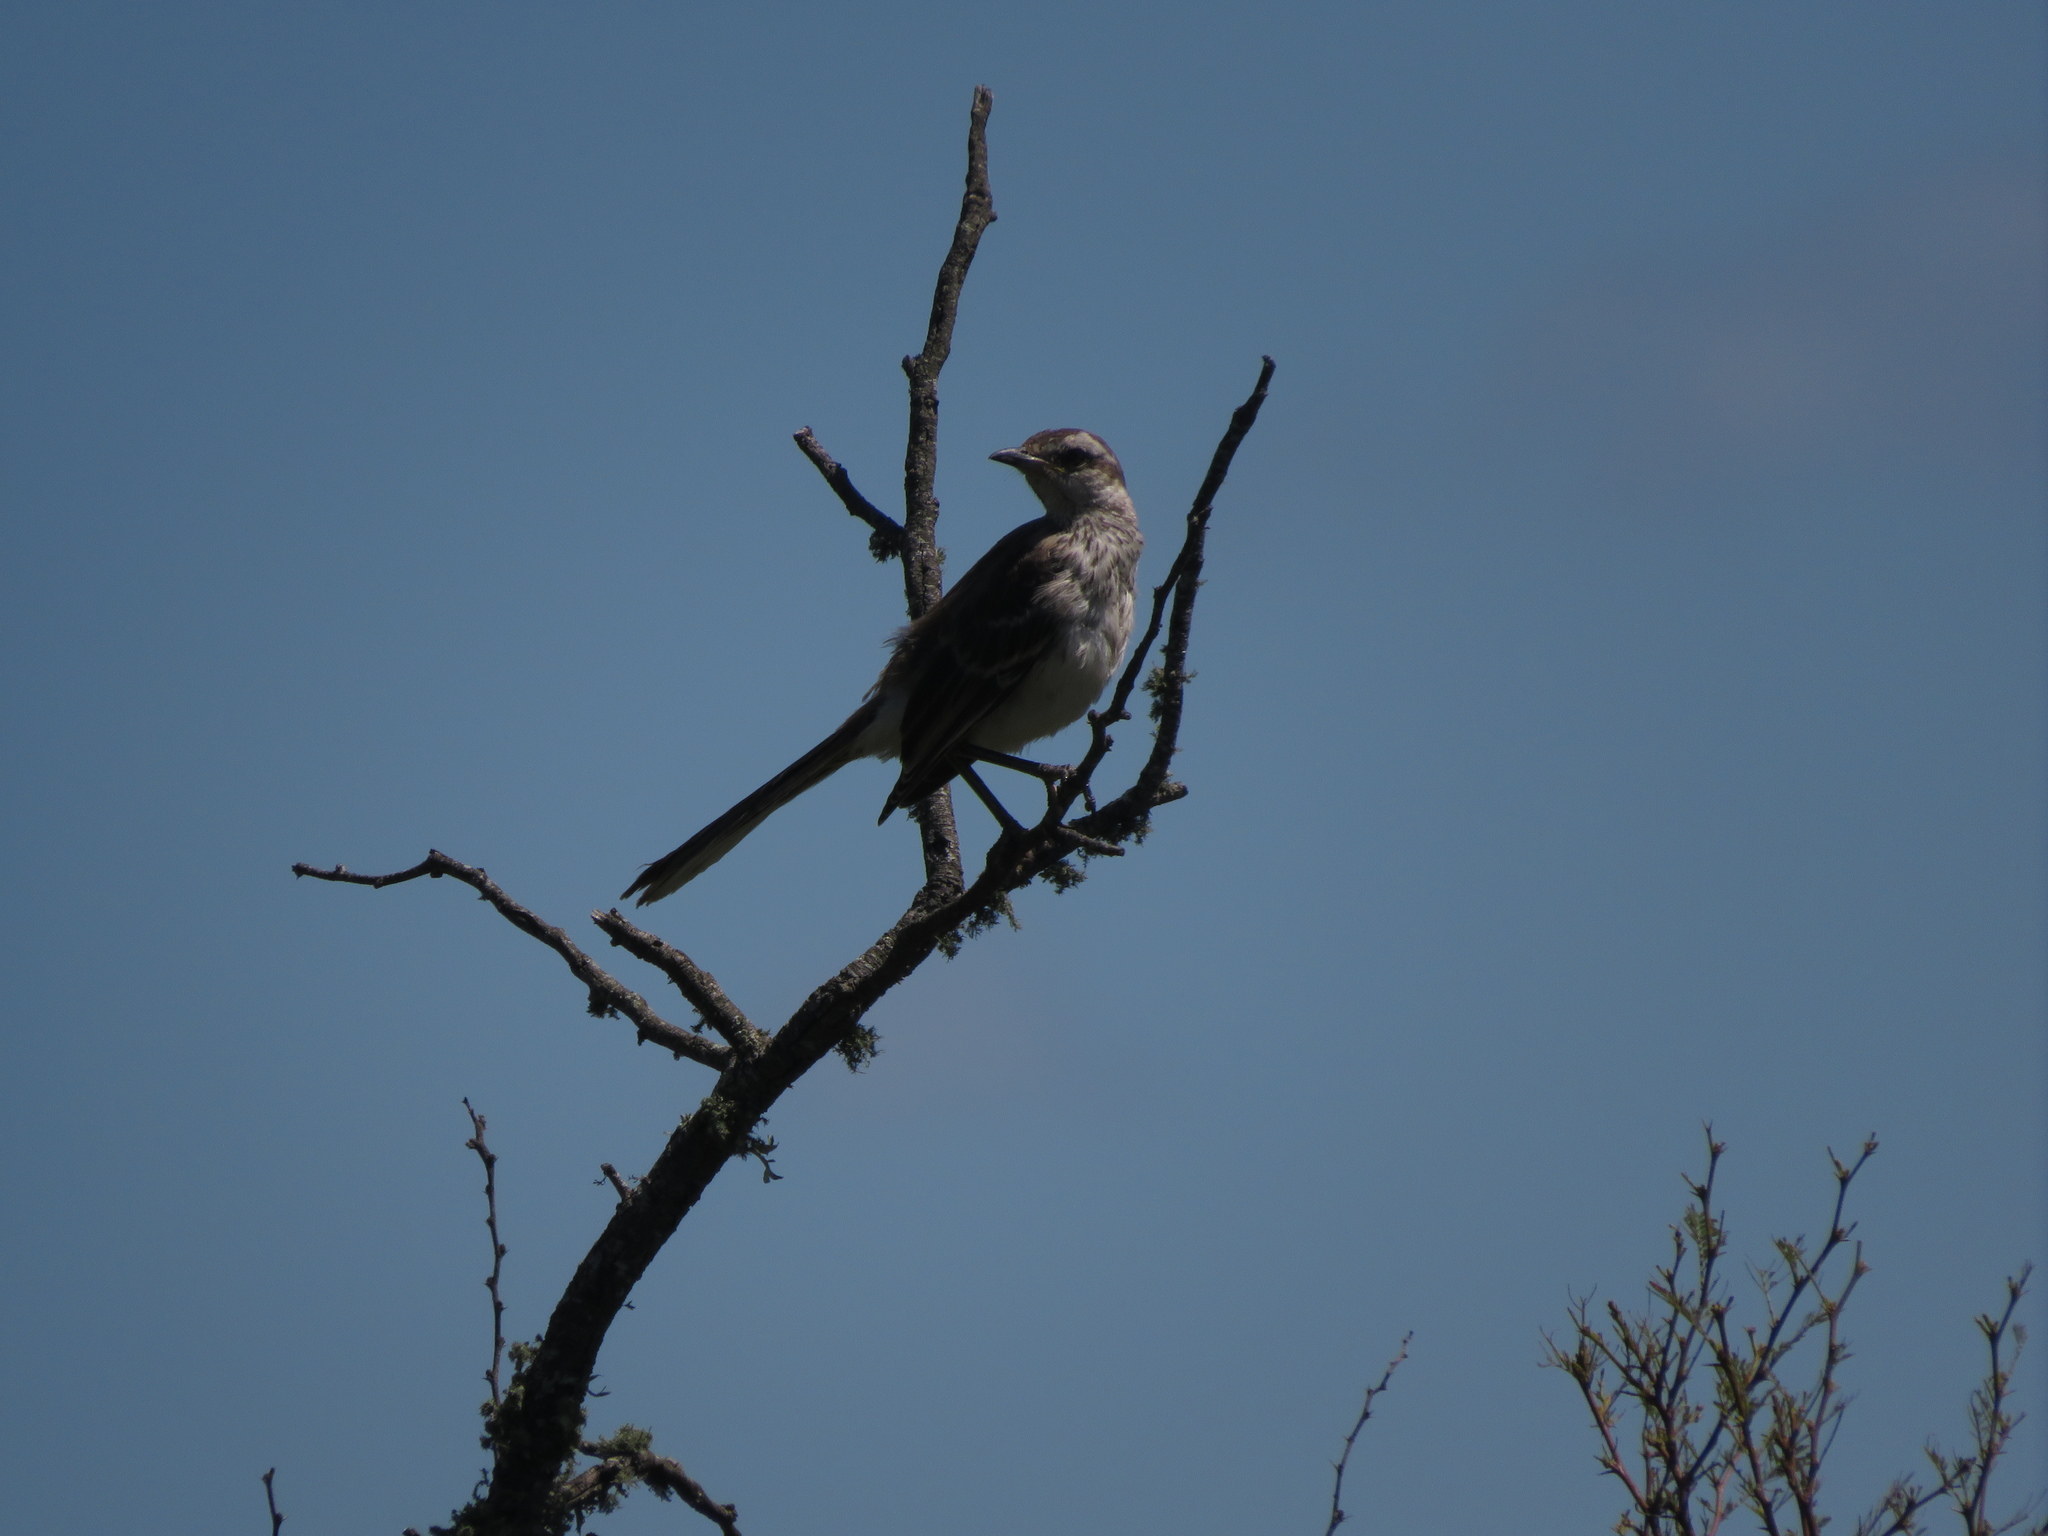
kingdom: Animalia
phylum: Chordata
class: Aves
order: Passeriformes
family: Mimidae
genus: Mimus
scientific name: Mimus saturninus
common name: Chalk-browed mockingbird
